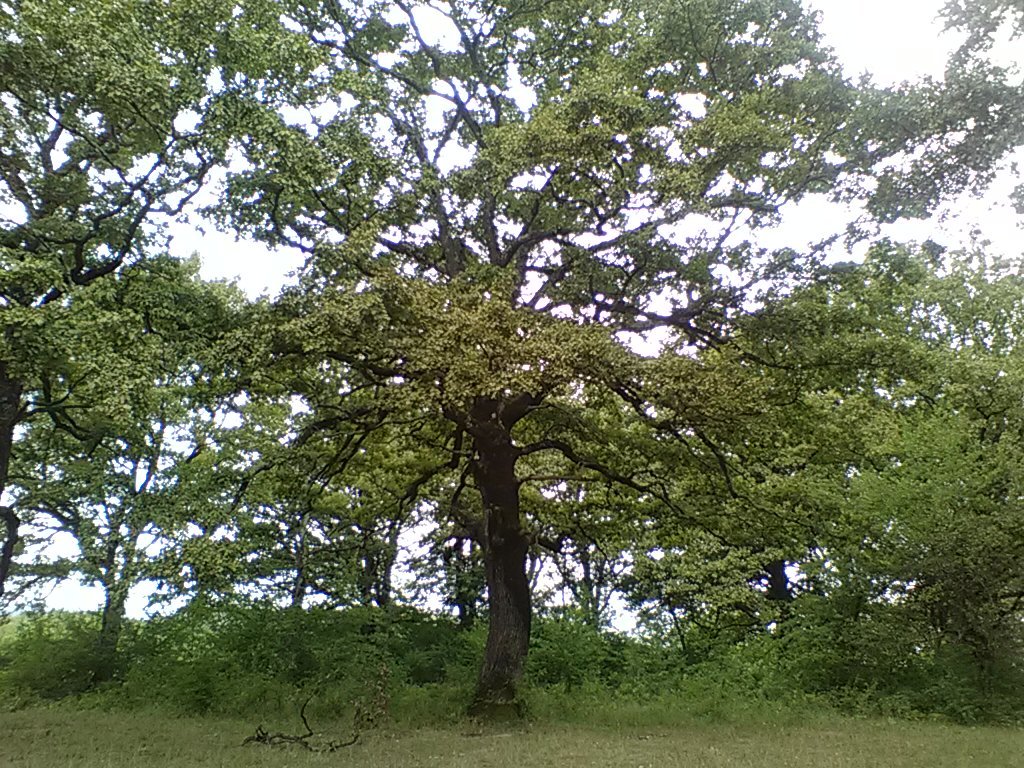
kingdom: Plantae
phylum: Tracheophyta
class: Magnoliopsida
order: Fagales
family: Fagaceae
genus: Quercus
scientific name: Quercus robur
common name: Pedunculate oak
